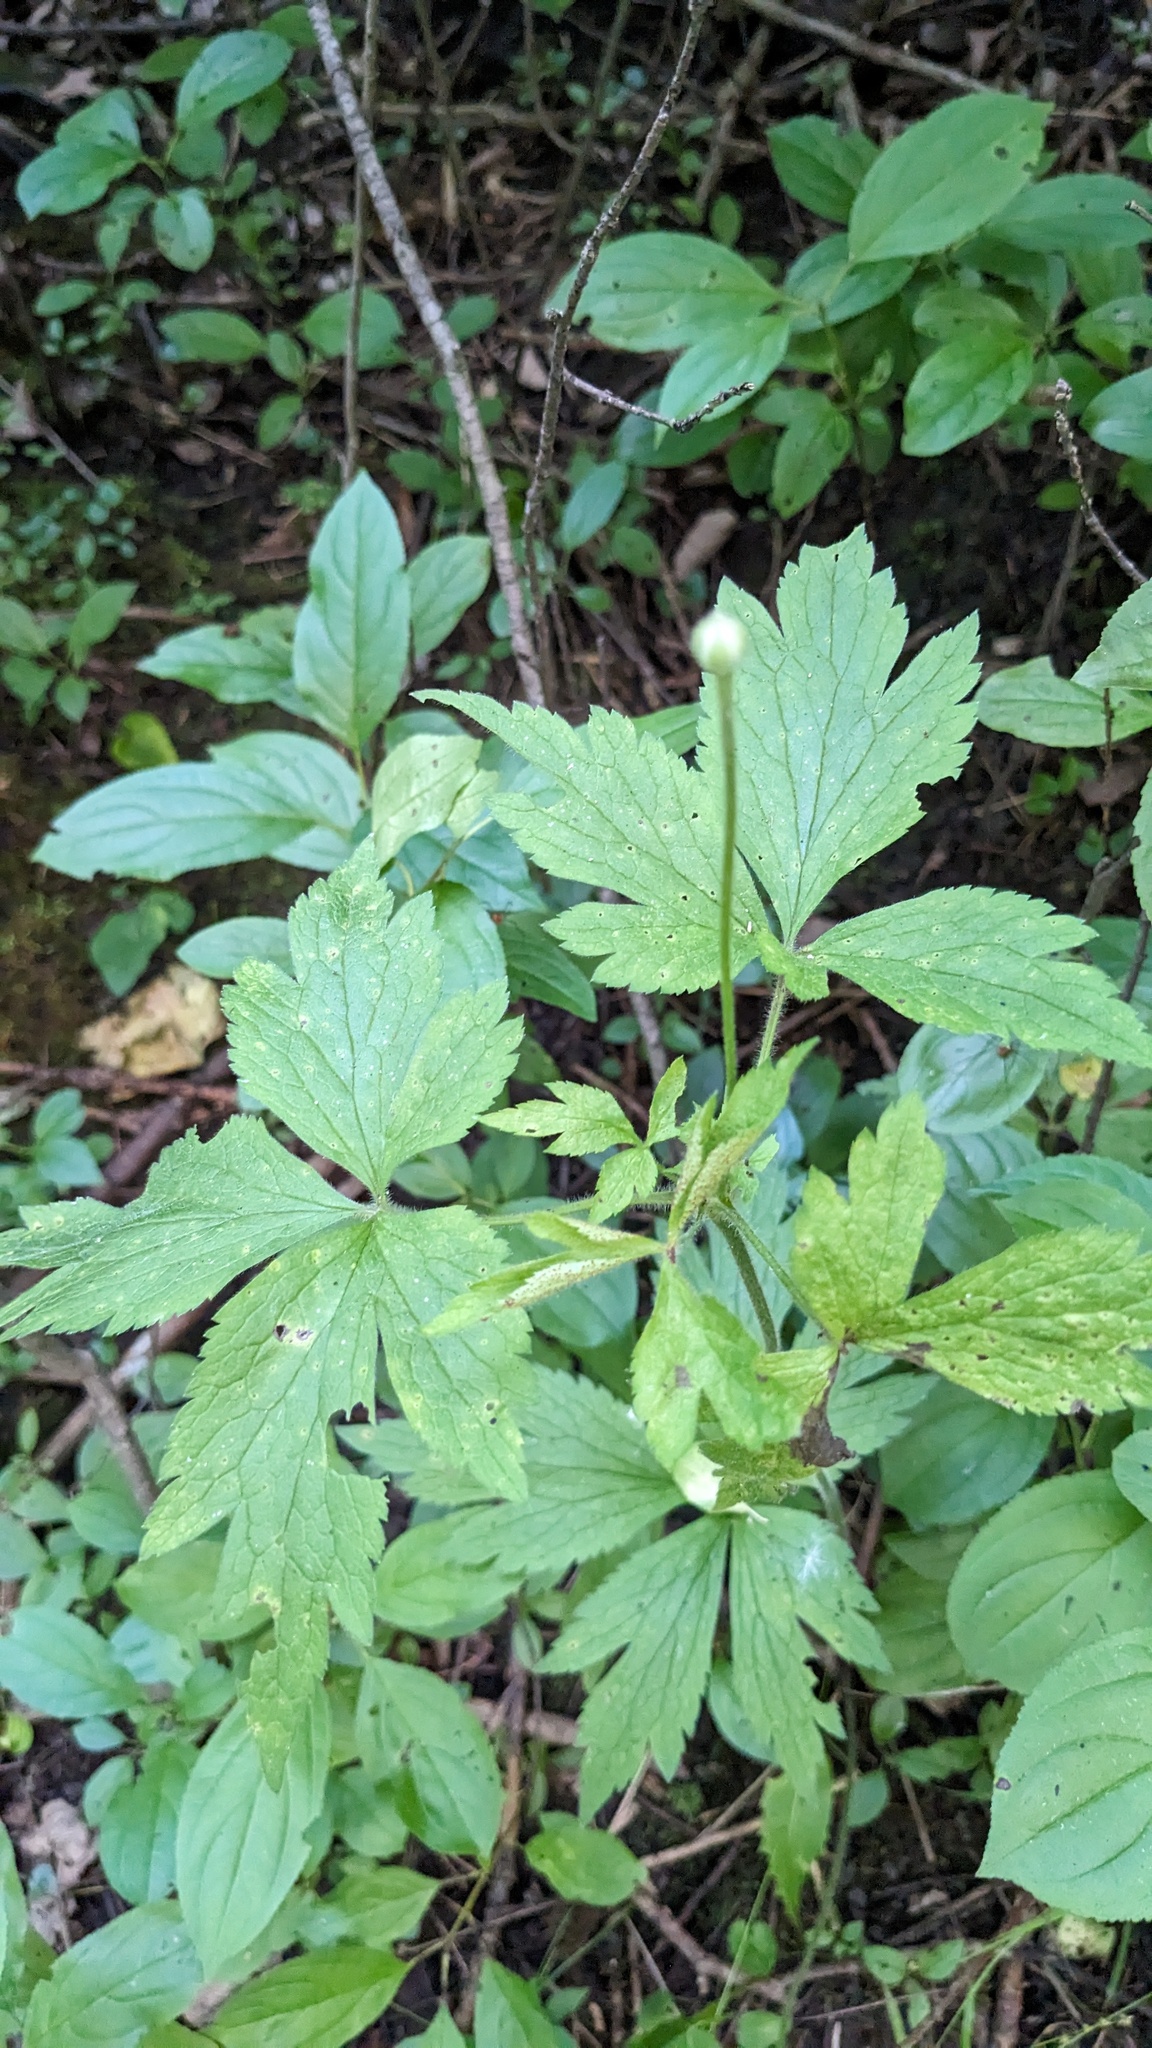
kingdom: Plantae
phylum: Tracheophyta
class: Magnoliopsida
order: Ranunculales
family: Ranunculaceae
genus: Anemone
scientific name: Anemone virginiana
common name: Tall anemone
